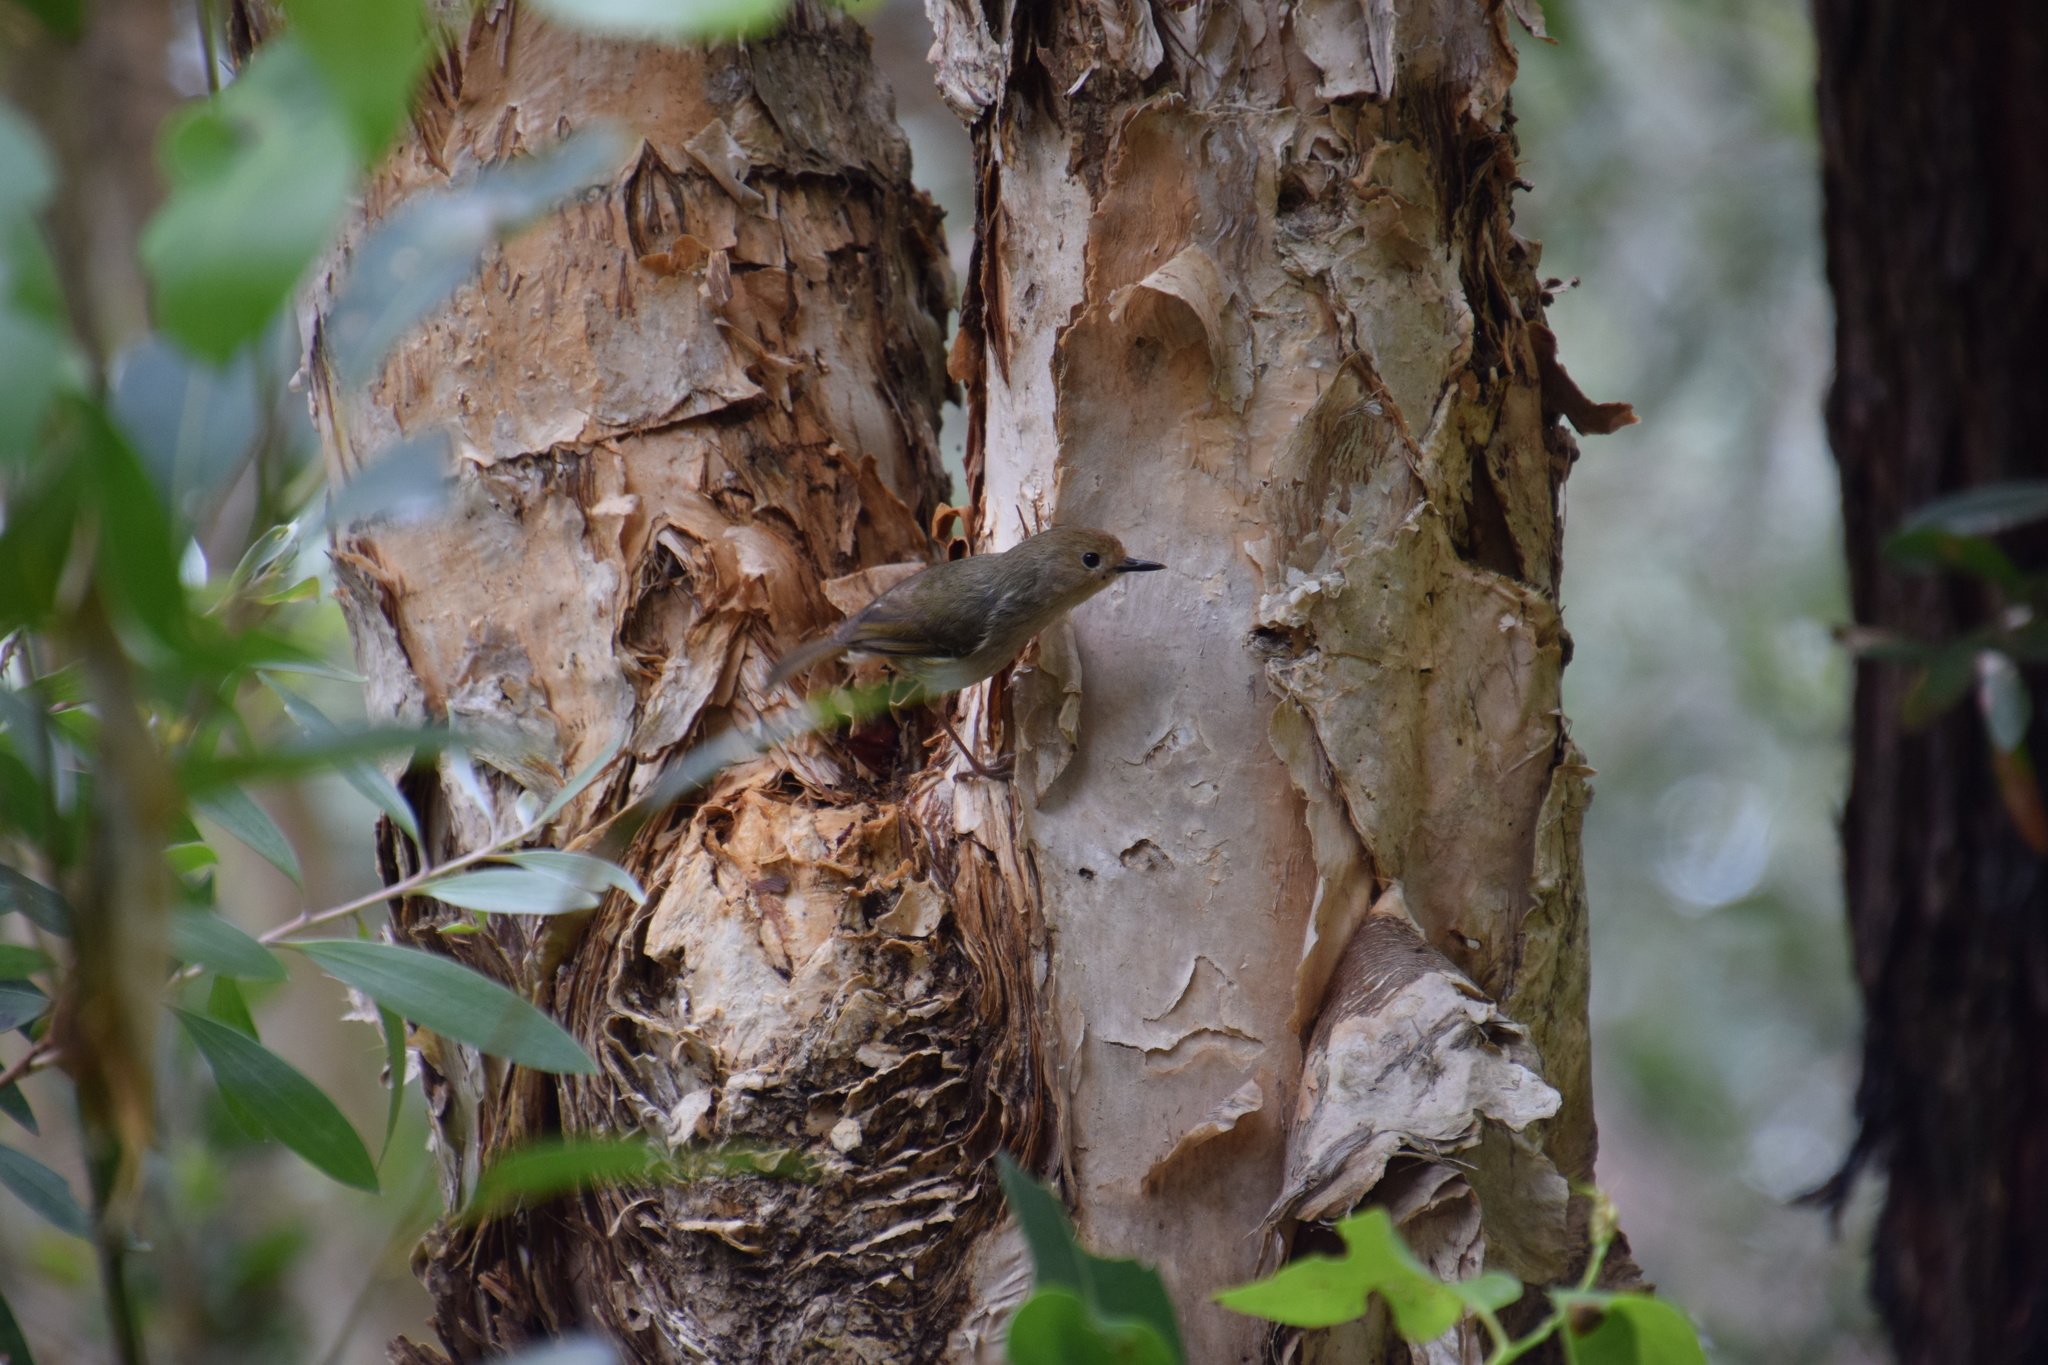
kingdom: Animalia
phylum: Chordata
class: Aves
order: Passeriformes
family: Acanthizidae
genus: Sericornis
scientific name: Sericornis magnirostra
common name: Large-billed scrubwren
